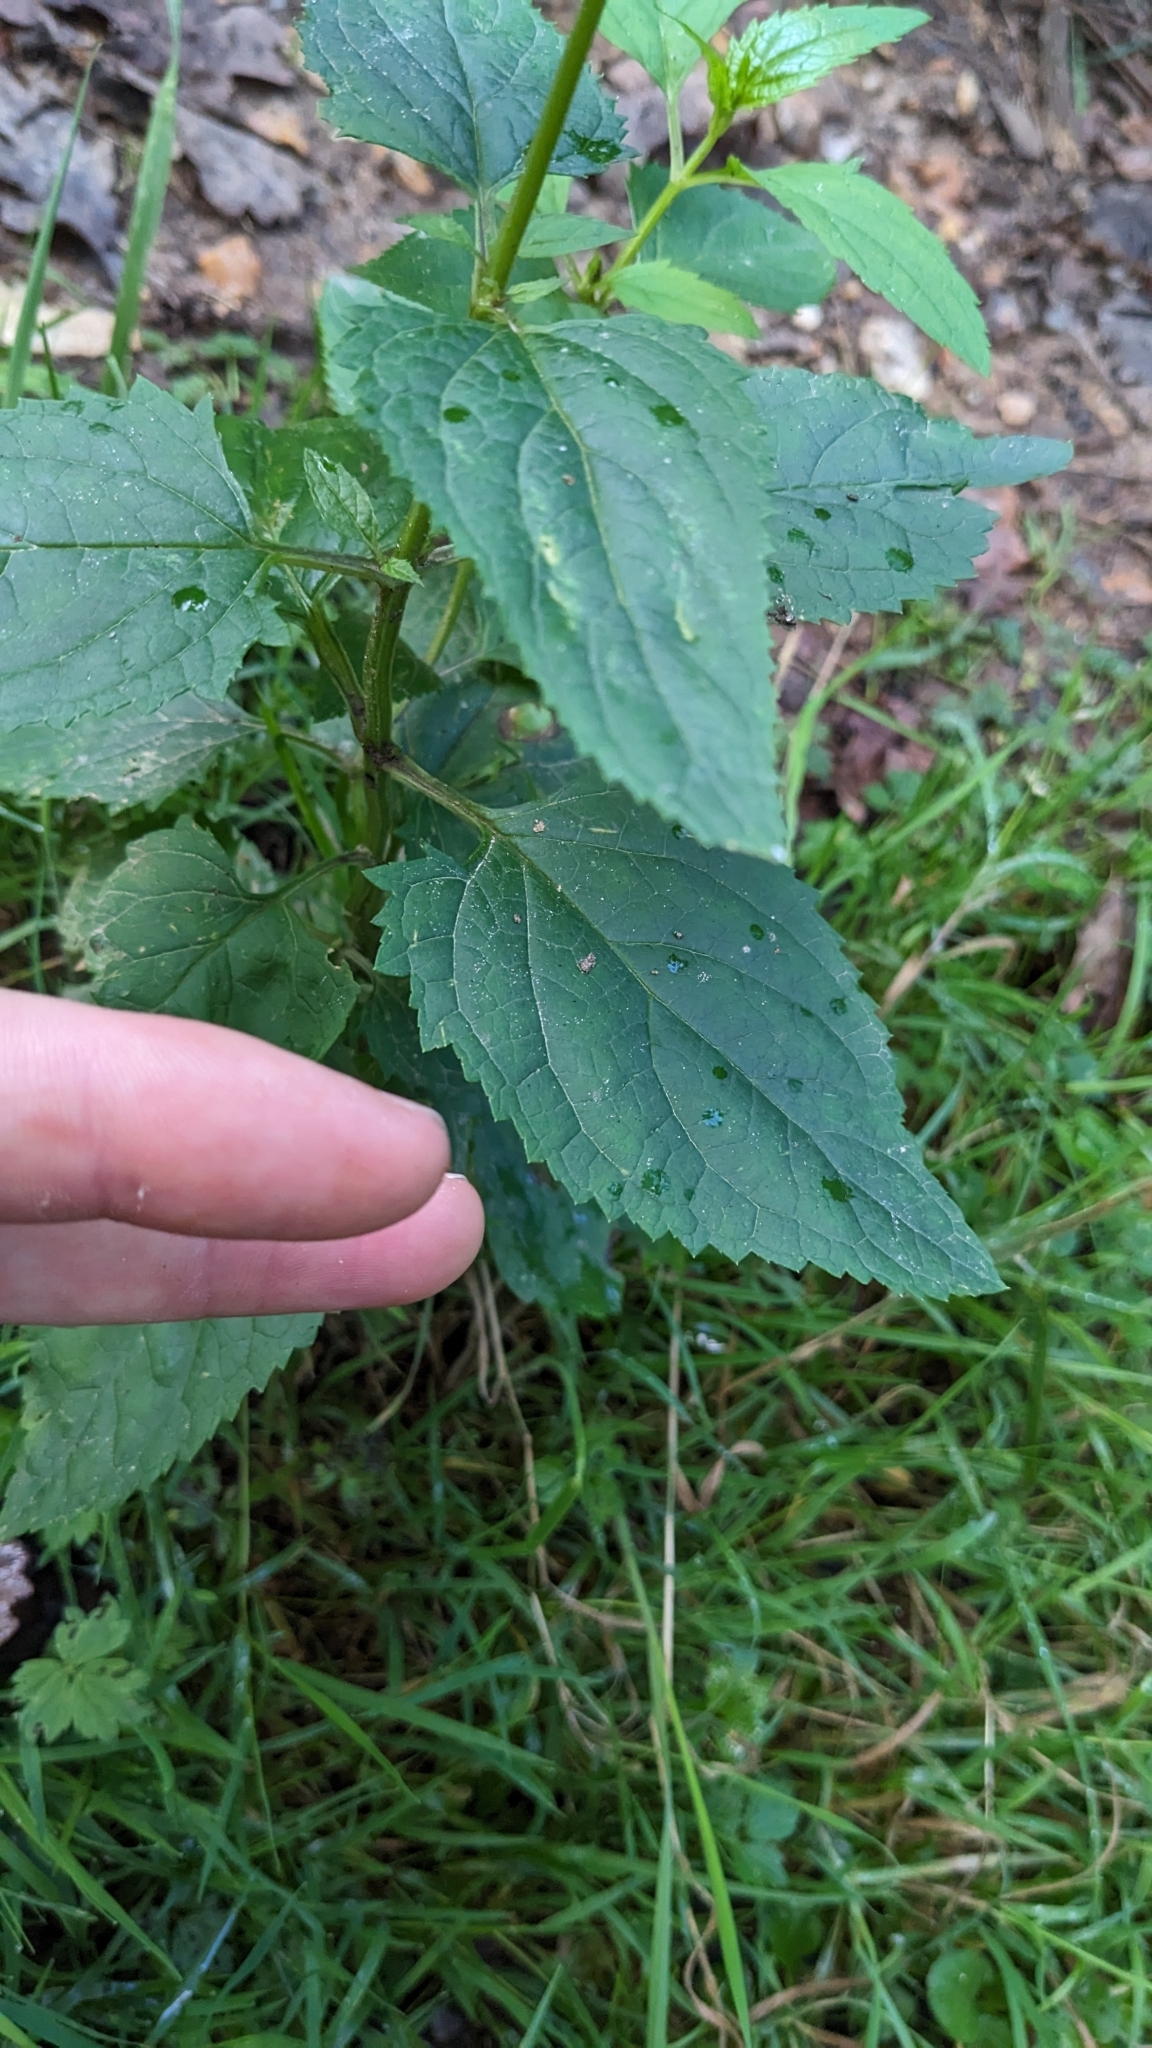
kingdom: Plantae
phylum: Tracheophyta
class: Magnoliopsida
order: Lamiales
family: Scrophulariaceae
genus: Scrophularia
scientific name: Scrophularia nodosa
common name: Common figwort
